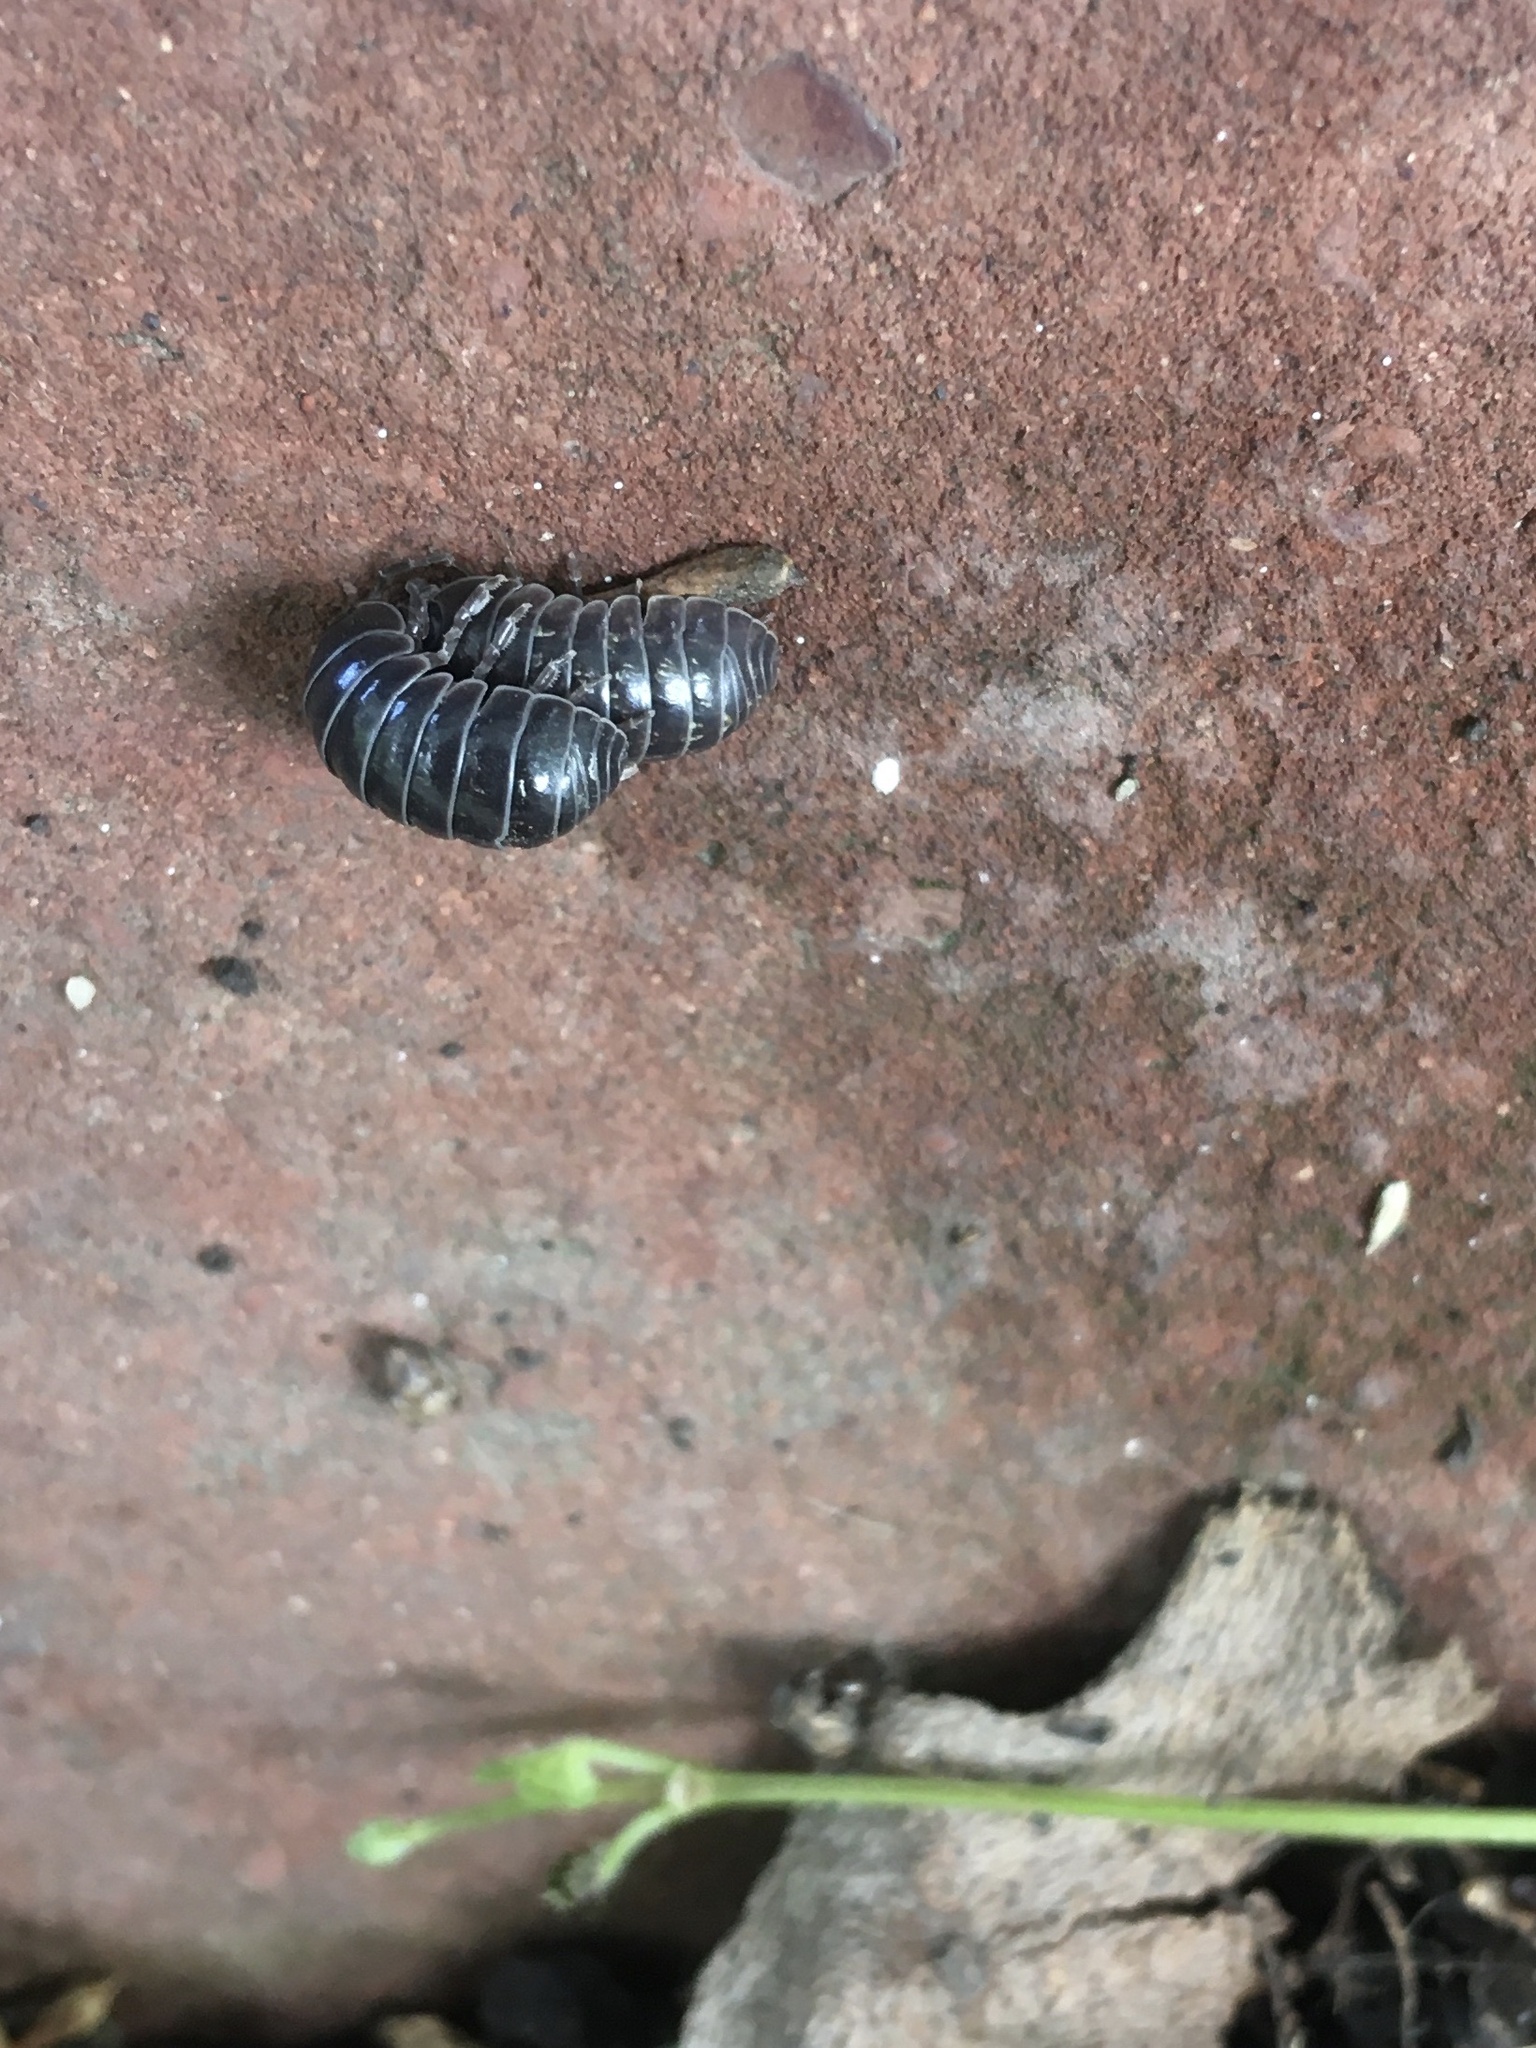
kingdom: Animalia
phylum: Arthropoda
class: Malacostraca
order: Isopoda
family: Armadillidiidae
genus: Armadillidium
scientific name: Armadillidium vulgare
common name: Common pill woodlouse
